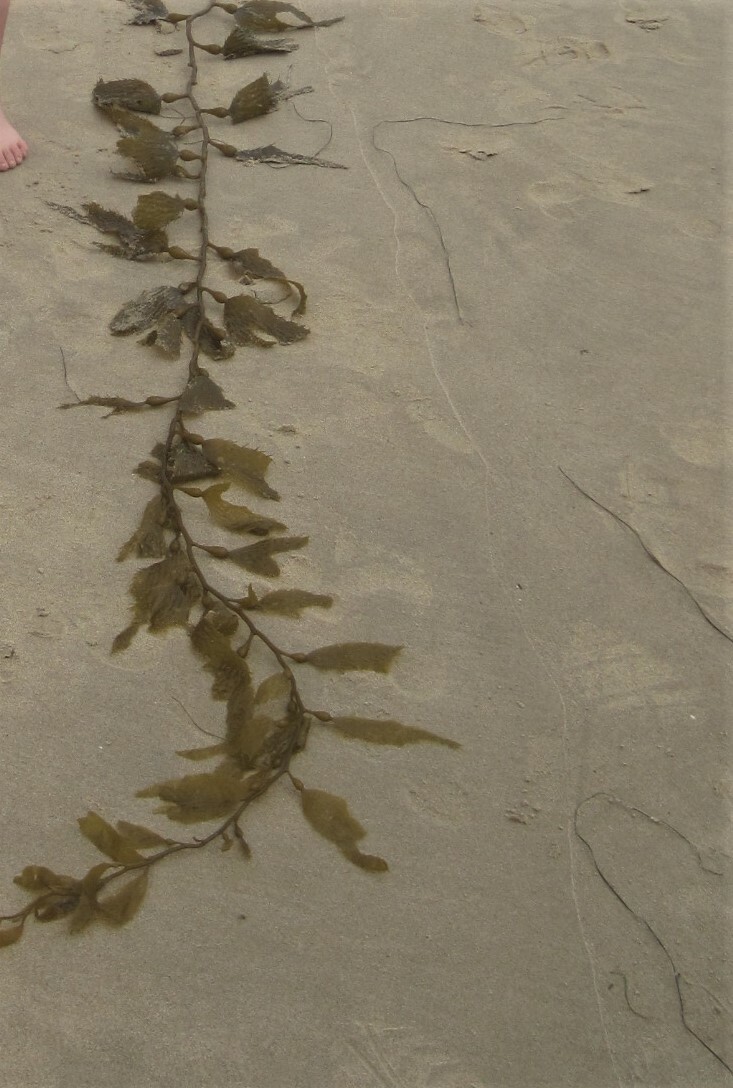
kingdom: Chromista
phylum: Ochrophyta
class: Phaeophyceae
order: Laminariales
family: Laminariaceae
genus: Macrocystis
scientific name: Macrocystis pyrifera
